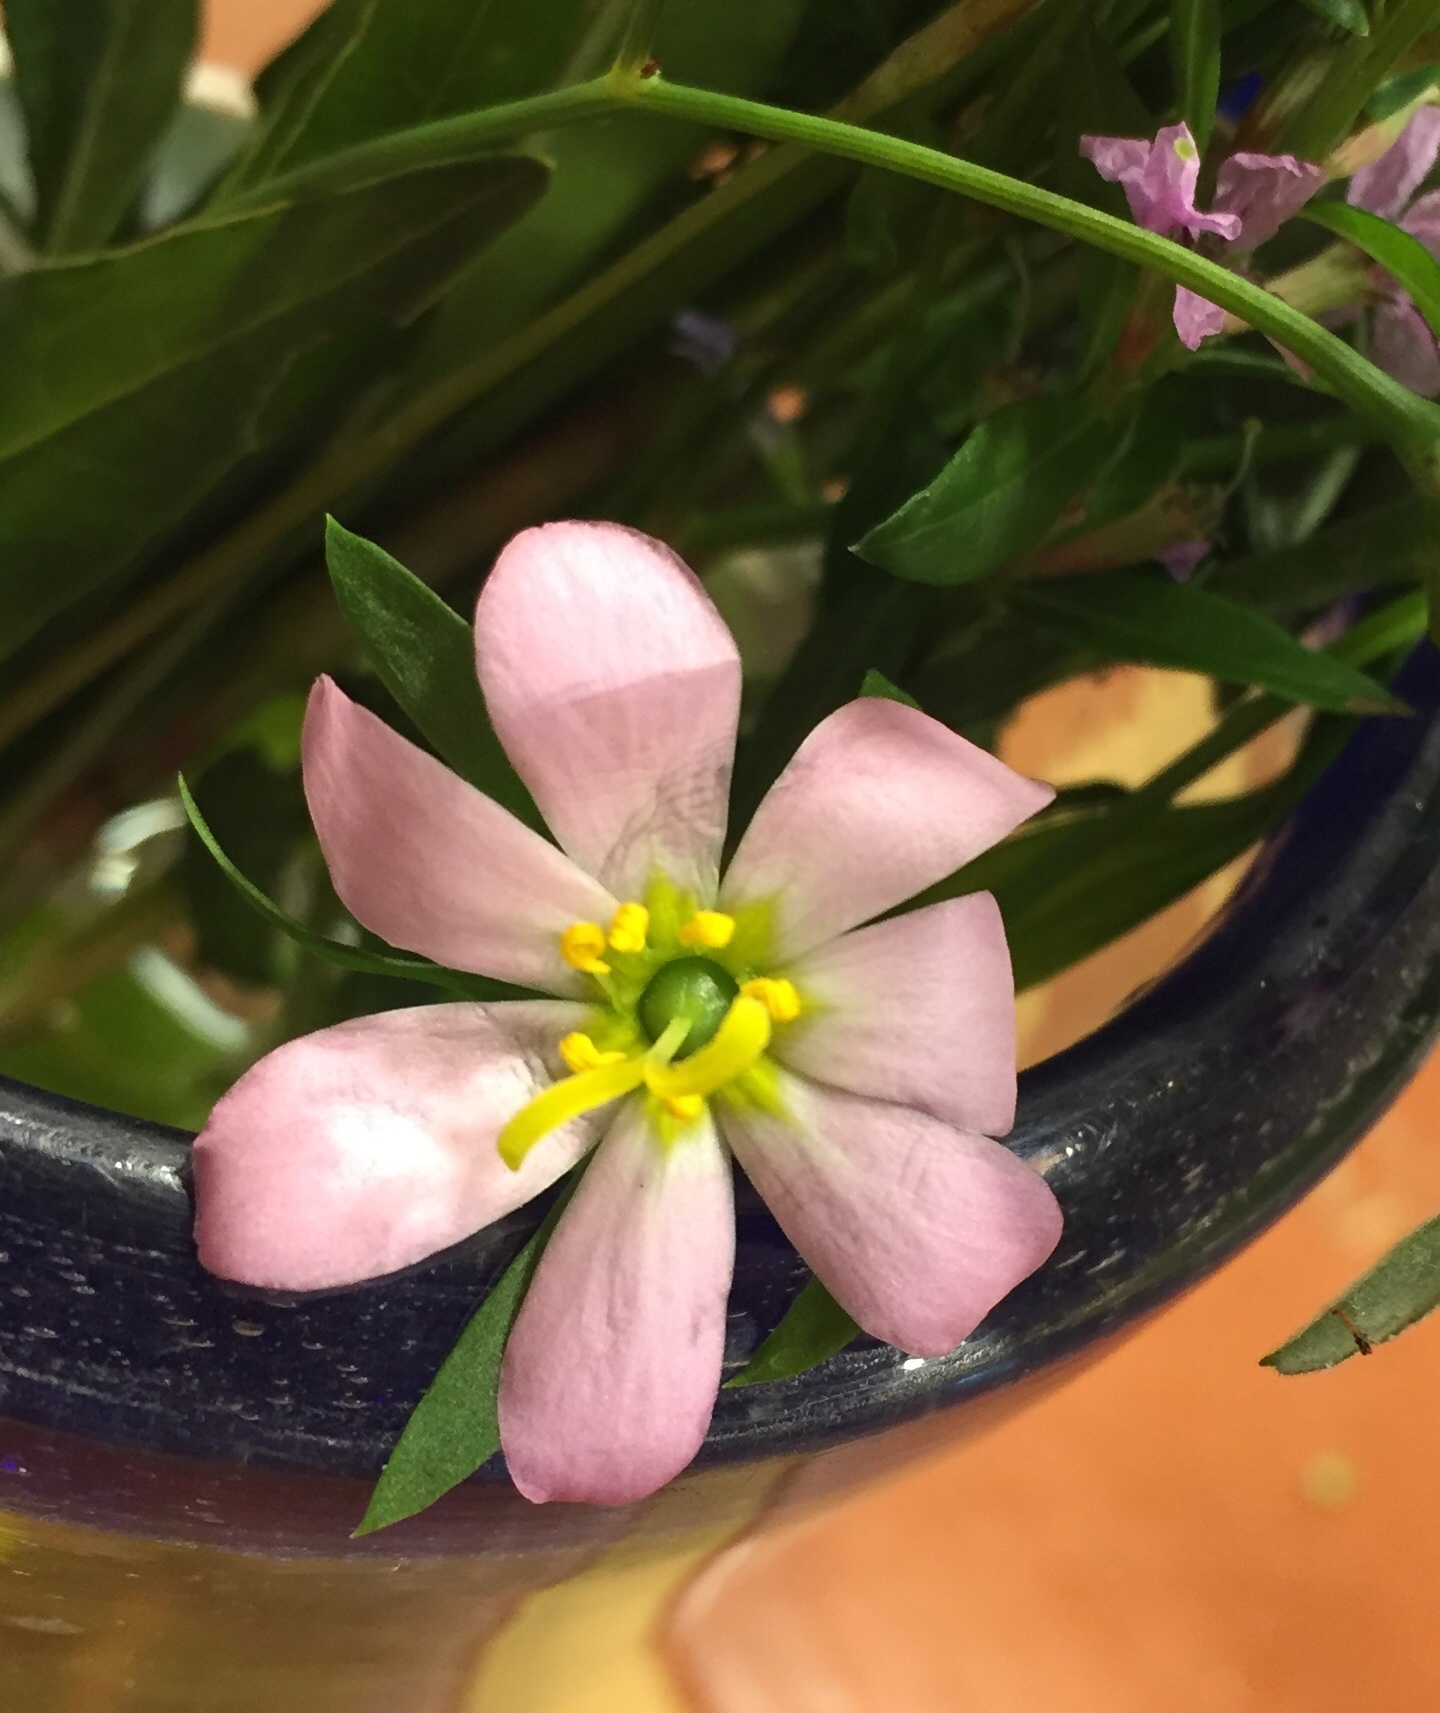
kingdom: Plantae
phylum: Tracheophyta
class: Magnoliopsida
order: Gentianales
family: Gentianaceae
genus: Sabatia
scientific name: Sabatia calycina
